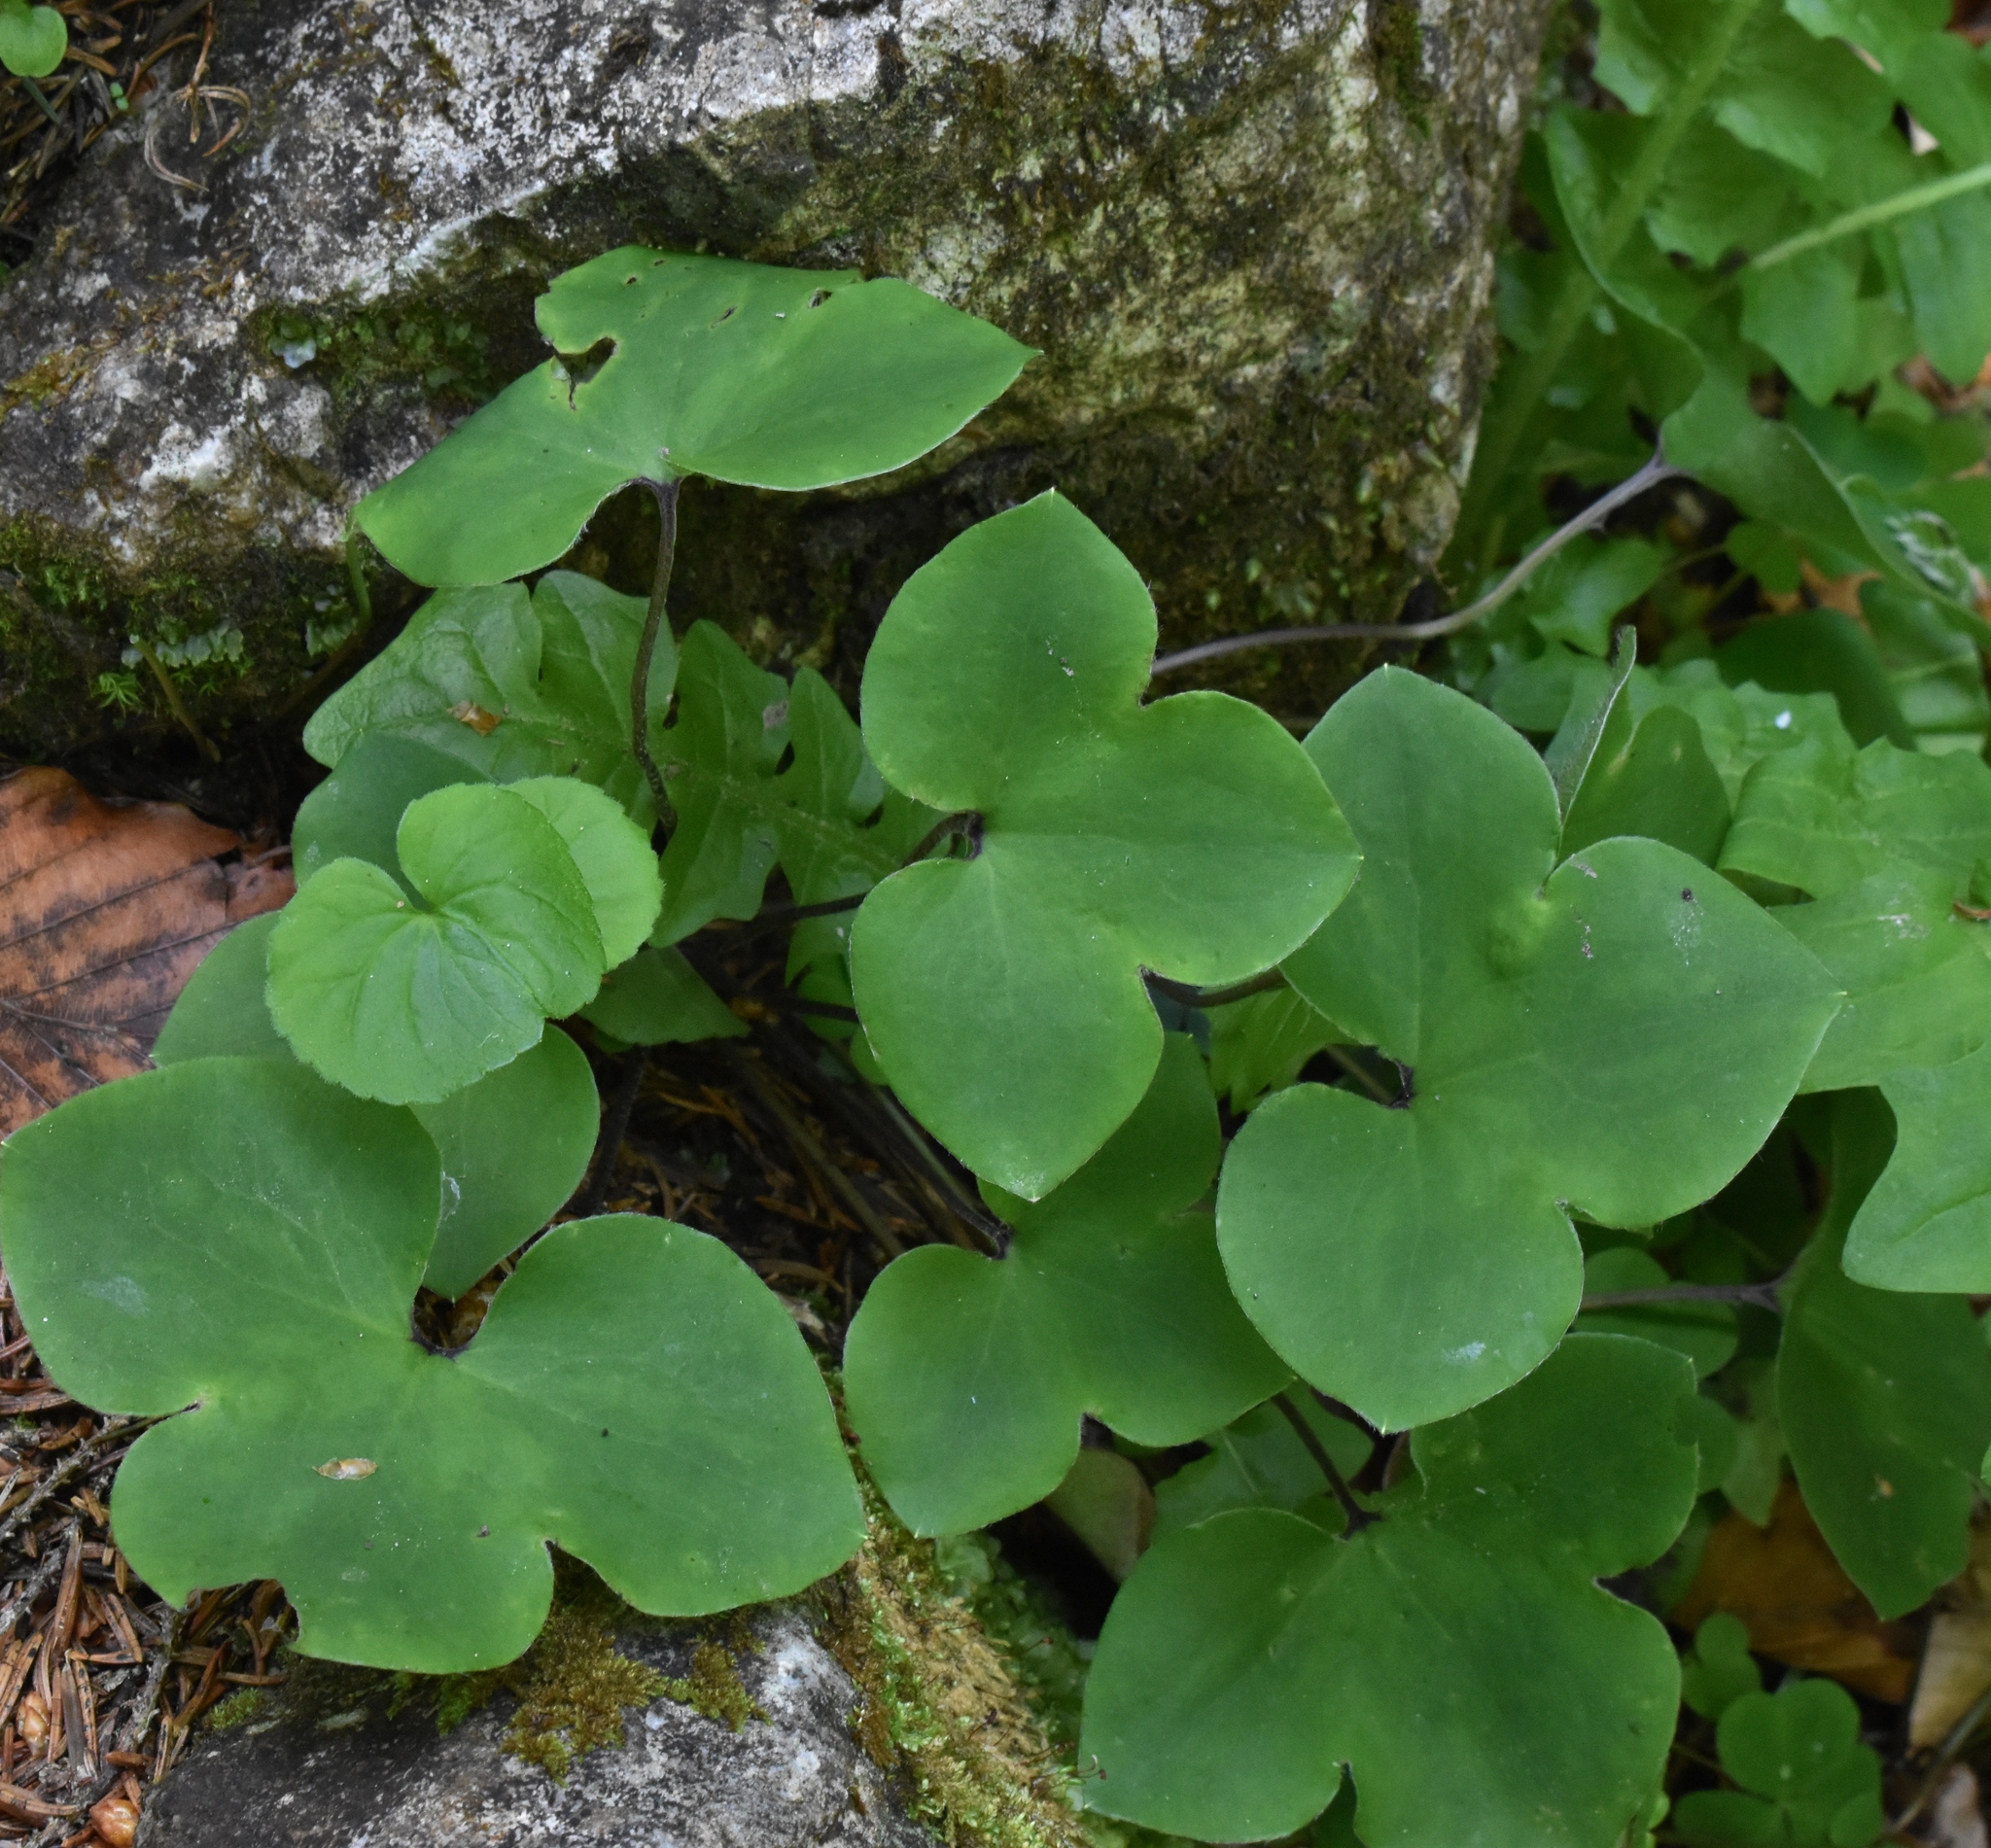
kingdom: Plantae
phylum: Tracheophyta
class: Magnoliopsida
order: Ranunculales
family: Ranunculaceae
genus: Hepatica
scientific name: Hepatica nobilis
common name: Liverleaf
